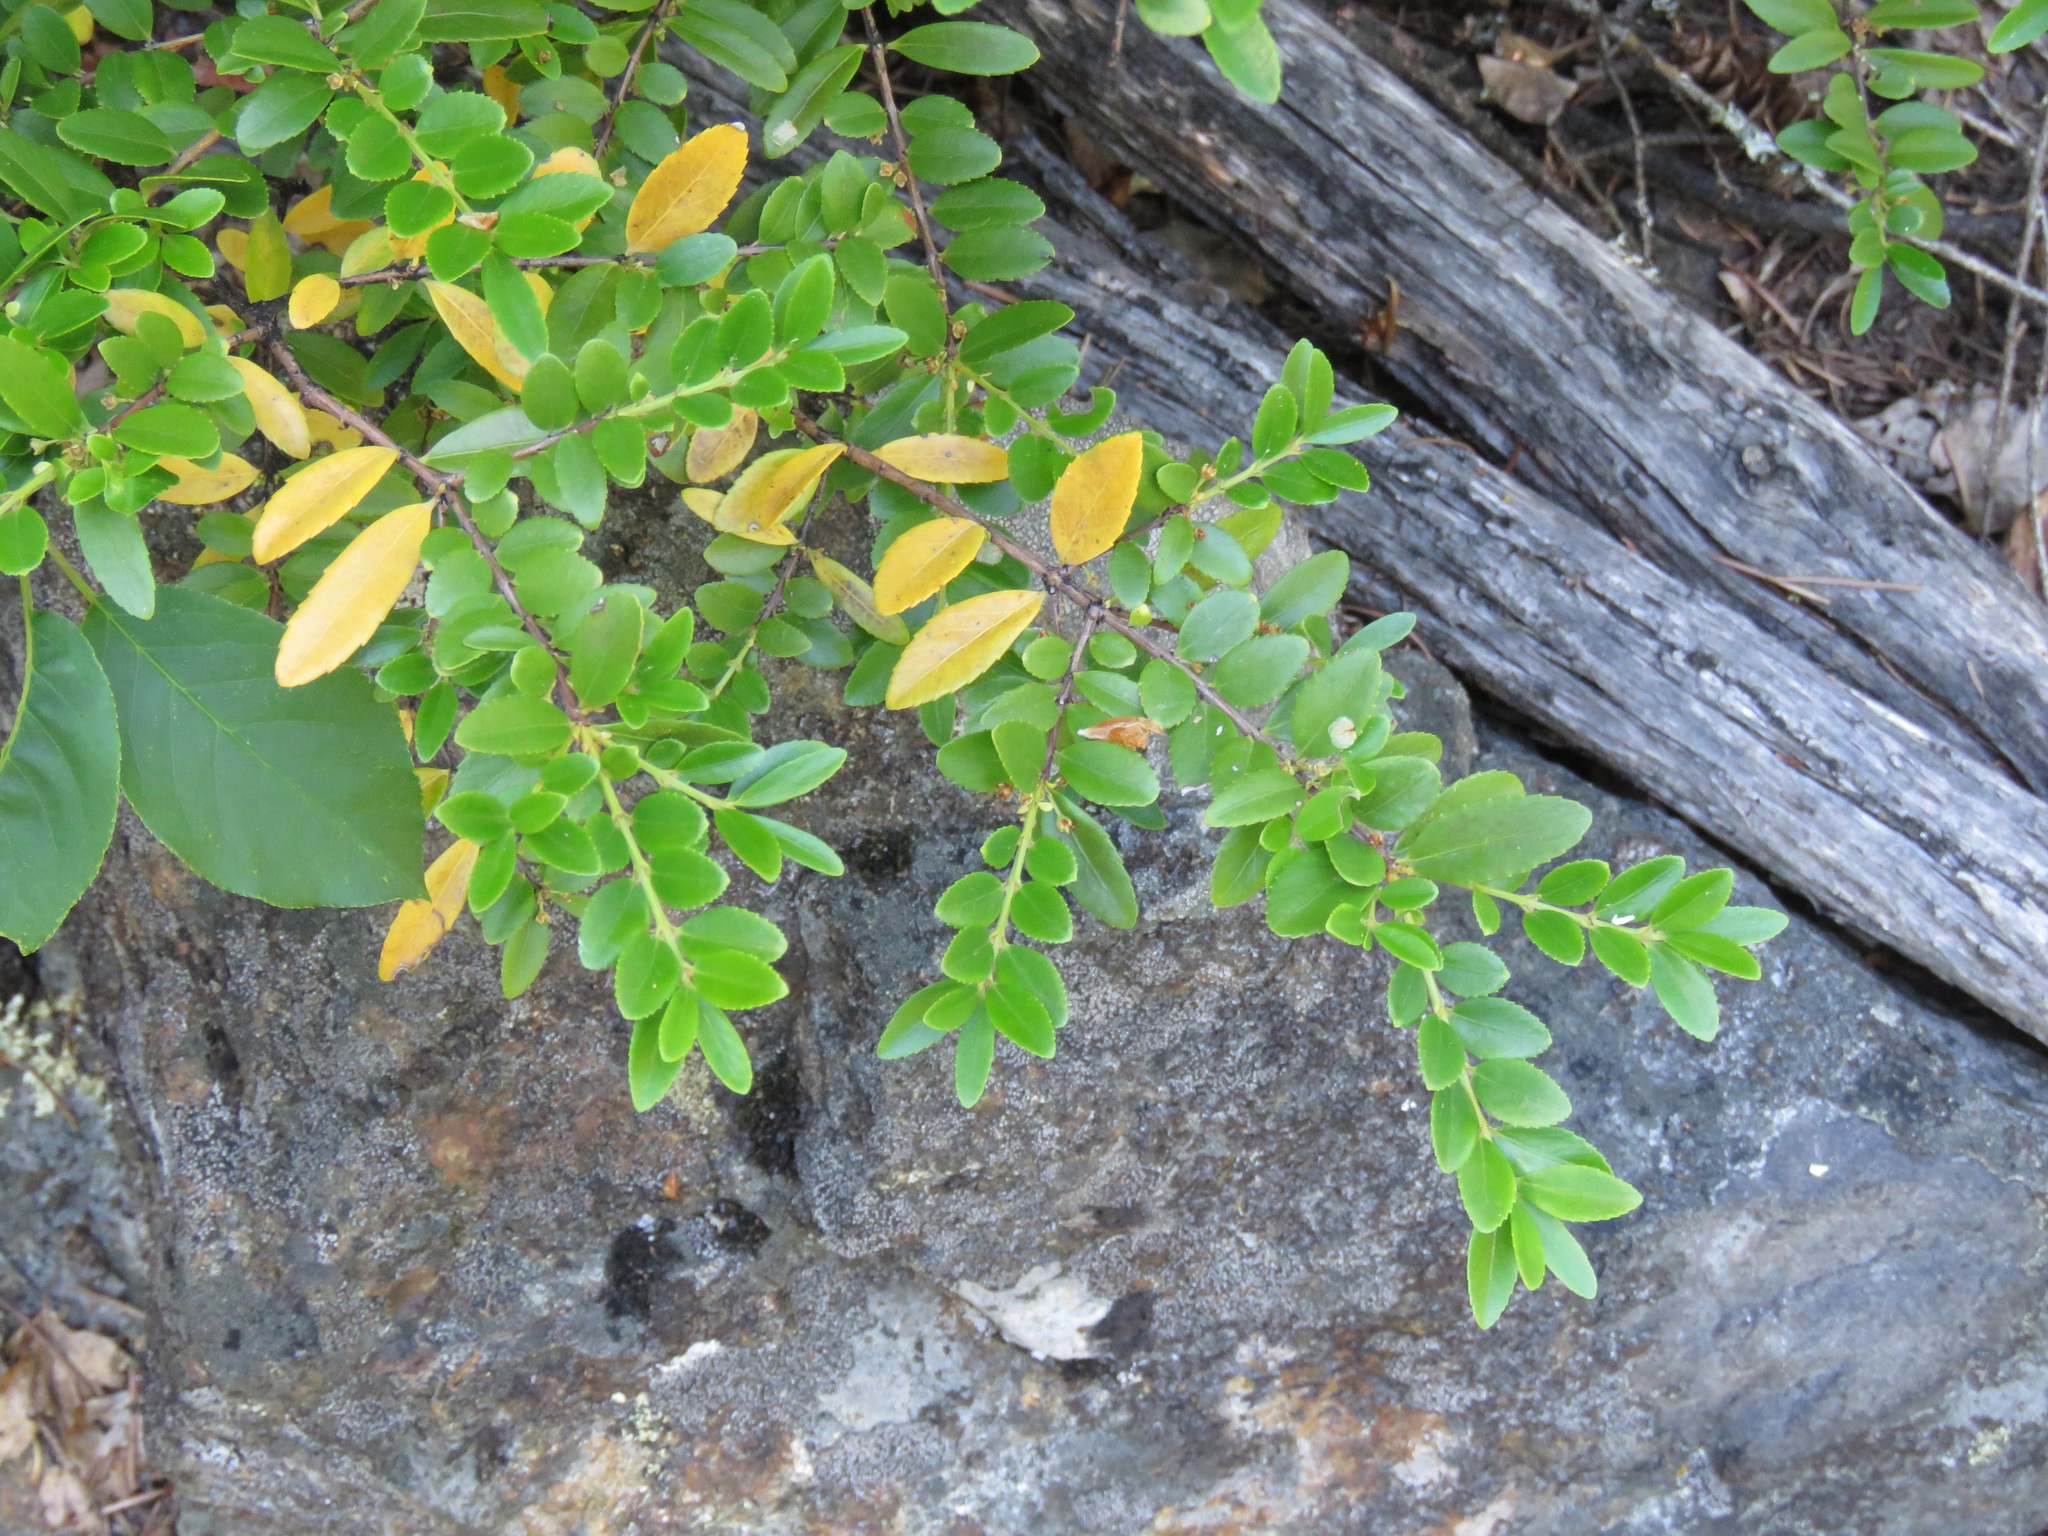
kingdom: Plantae
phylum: Tracheophyta
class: Magnoliopsida
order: Celastrales
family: Celastraceae
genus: Paxistima
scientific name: Paxistima myrsinites
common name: Mountain-lover
